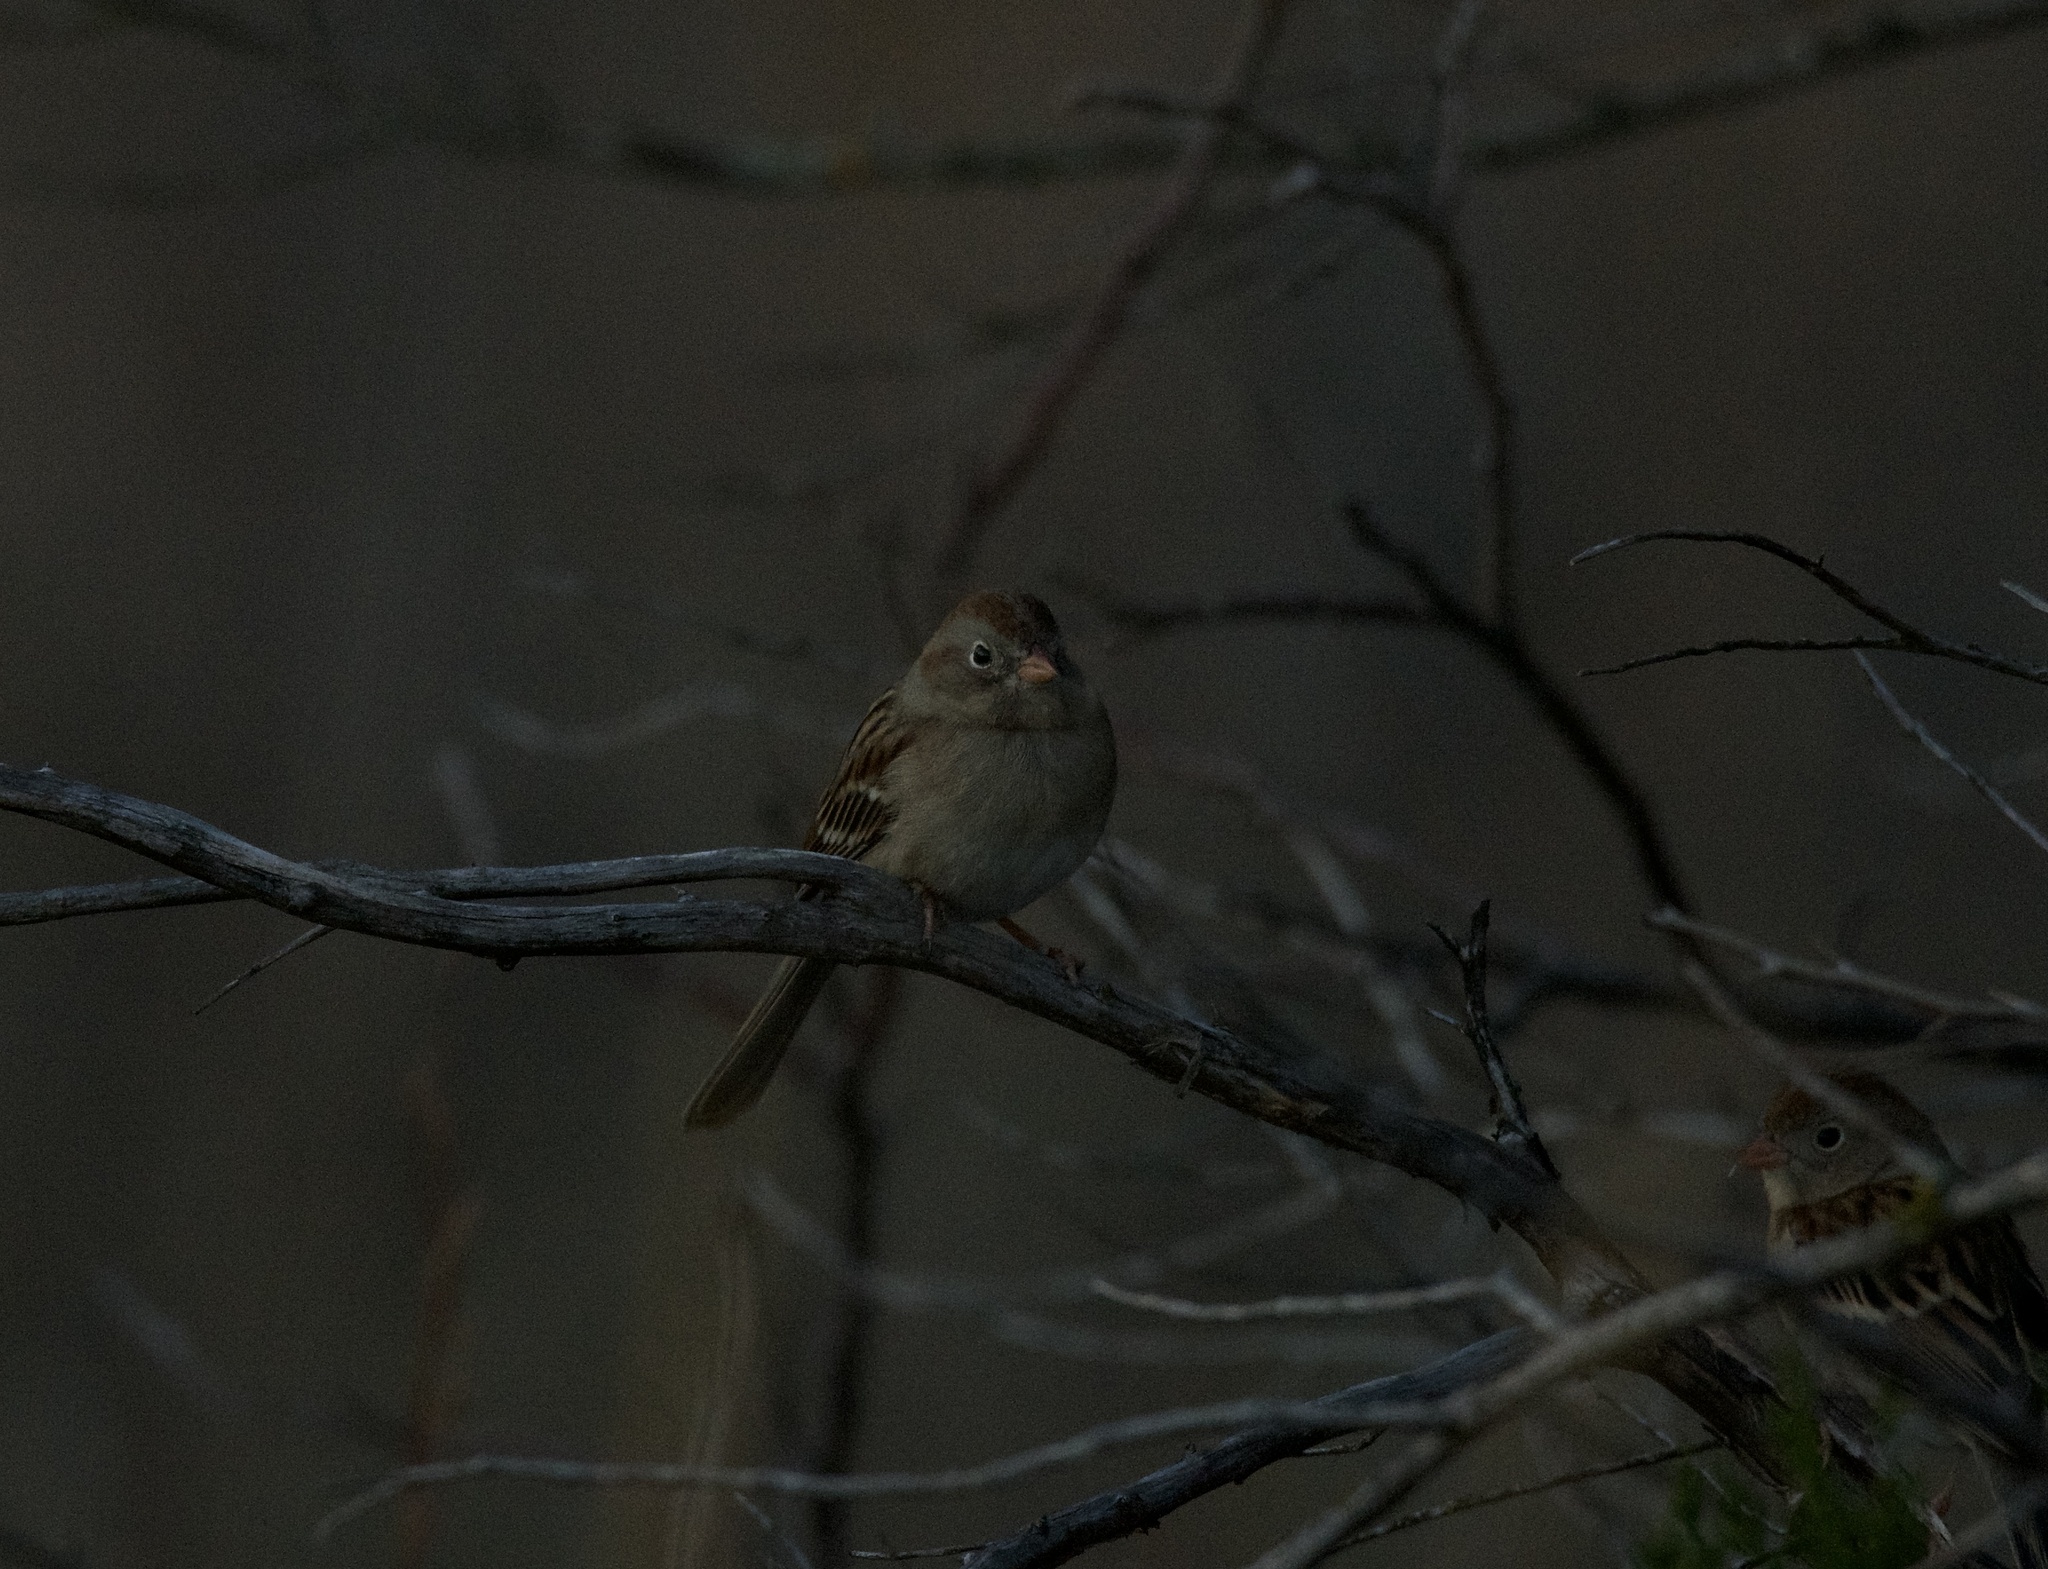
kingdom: Animalia
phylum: Chordata
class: Aves
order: Passeriformes
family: Passerellidae
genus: Spizella
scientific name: Spizella pusilla
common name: Field sparrow
